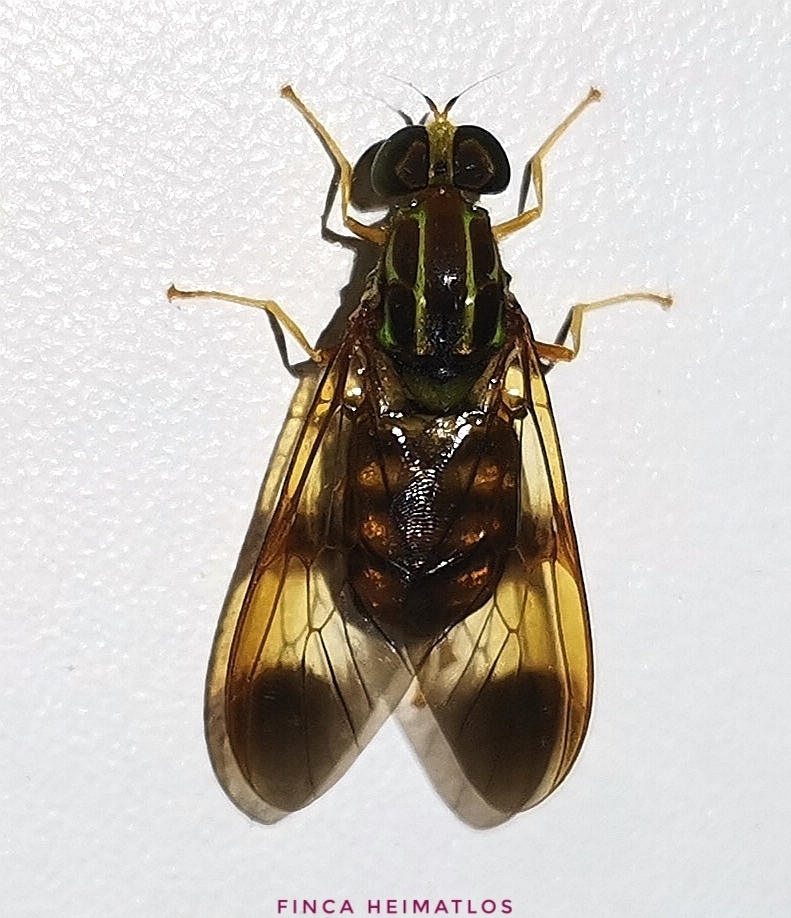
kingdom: Animalia
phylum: Arthropoda
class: Insecta
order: Diptera
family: Stratiomyidae
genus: Chrysochlorina
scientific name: Chrysochlorina currani
